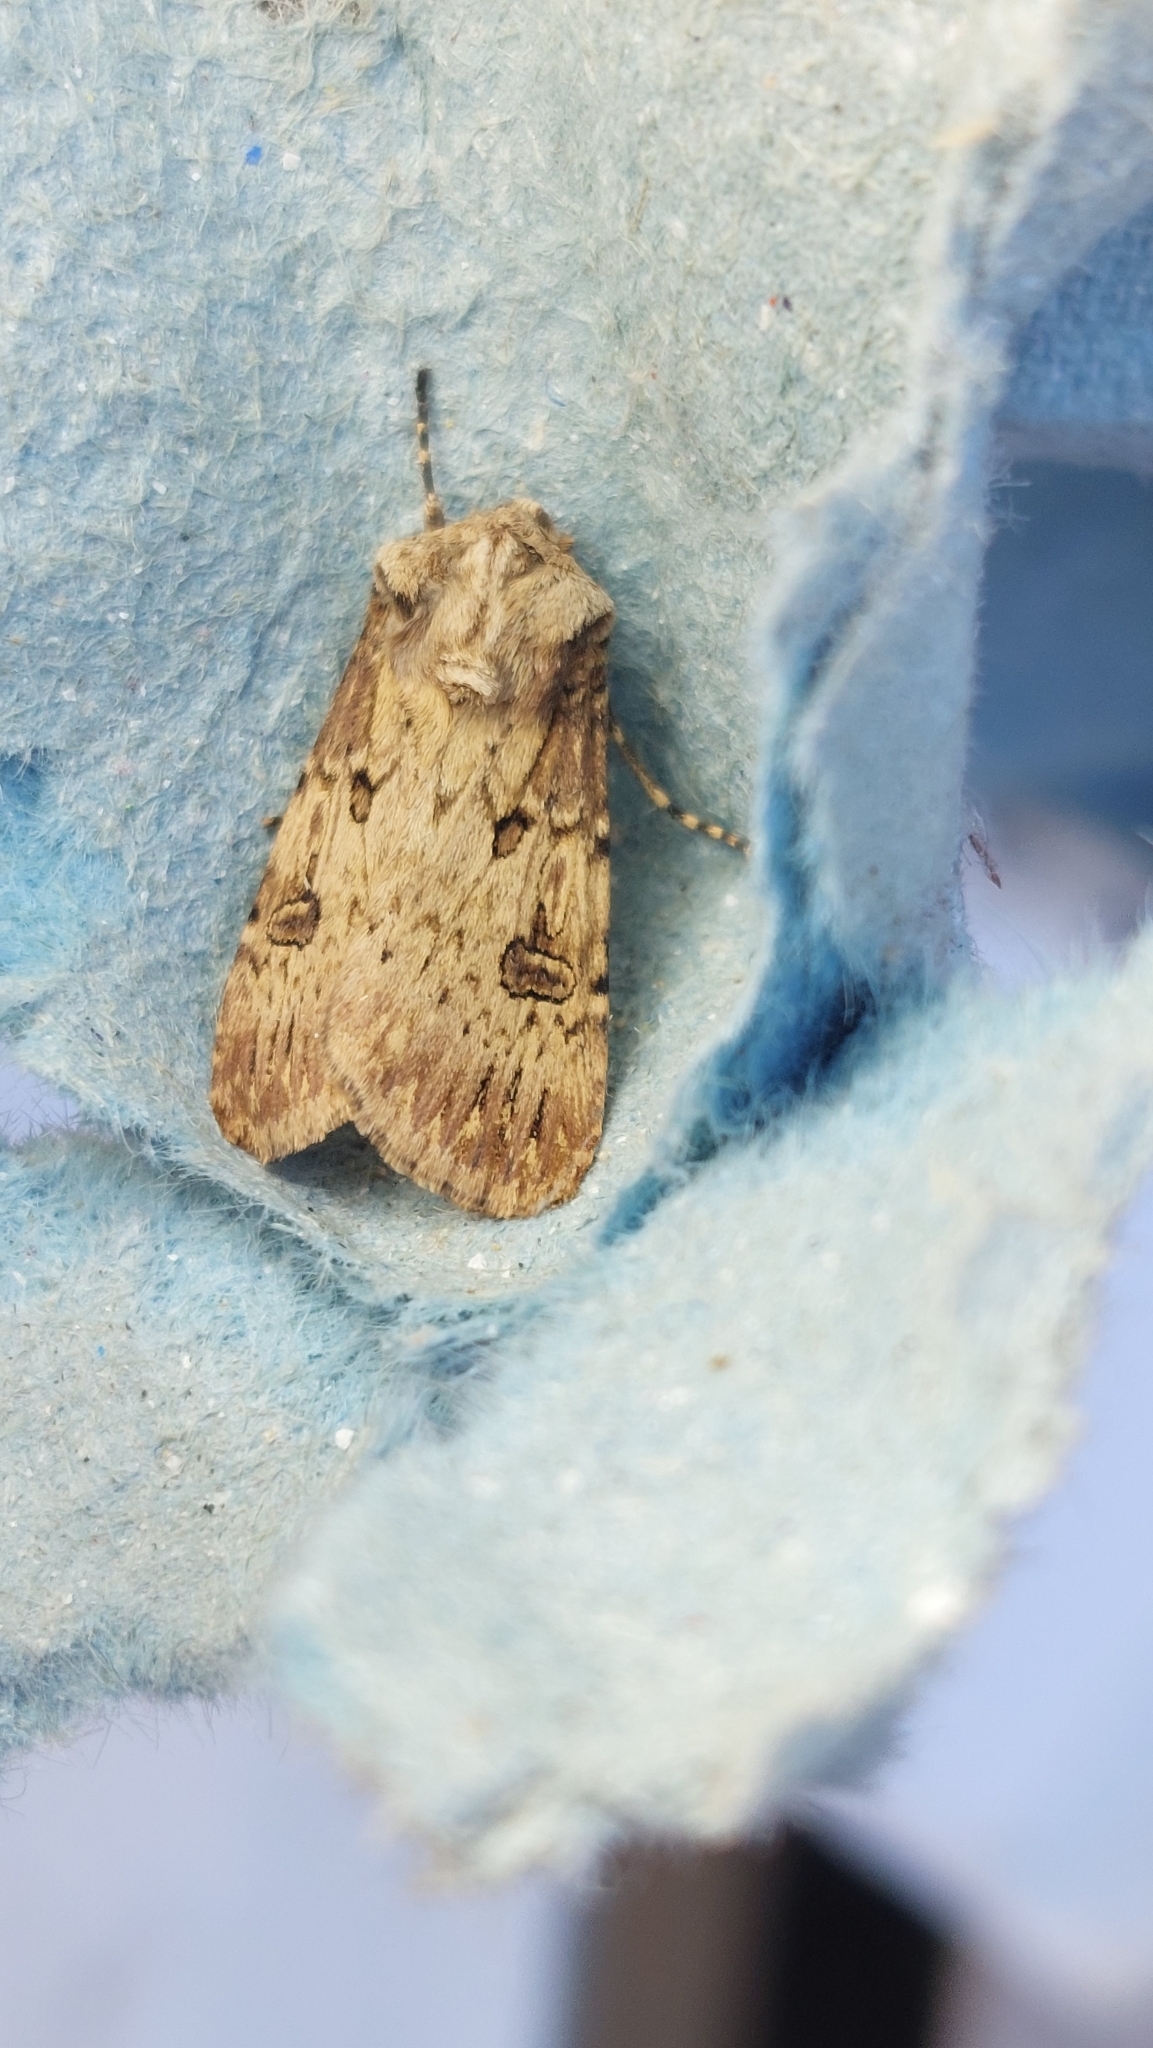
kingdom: Animalia
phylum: Arthropoda
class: Insecta
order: Lepidoptera
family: Noctuidae
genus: Agrotis
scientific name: Agrotis puta
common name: Shuttle-shaped dart
